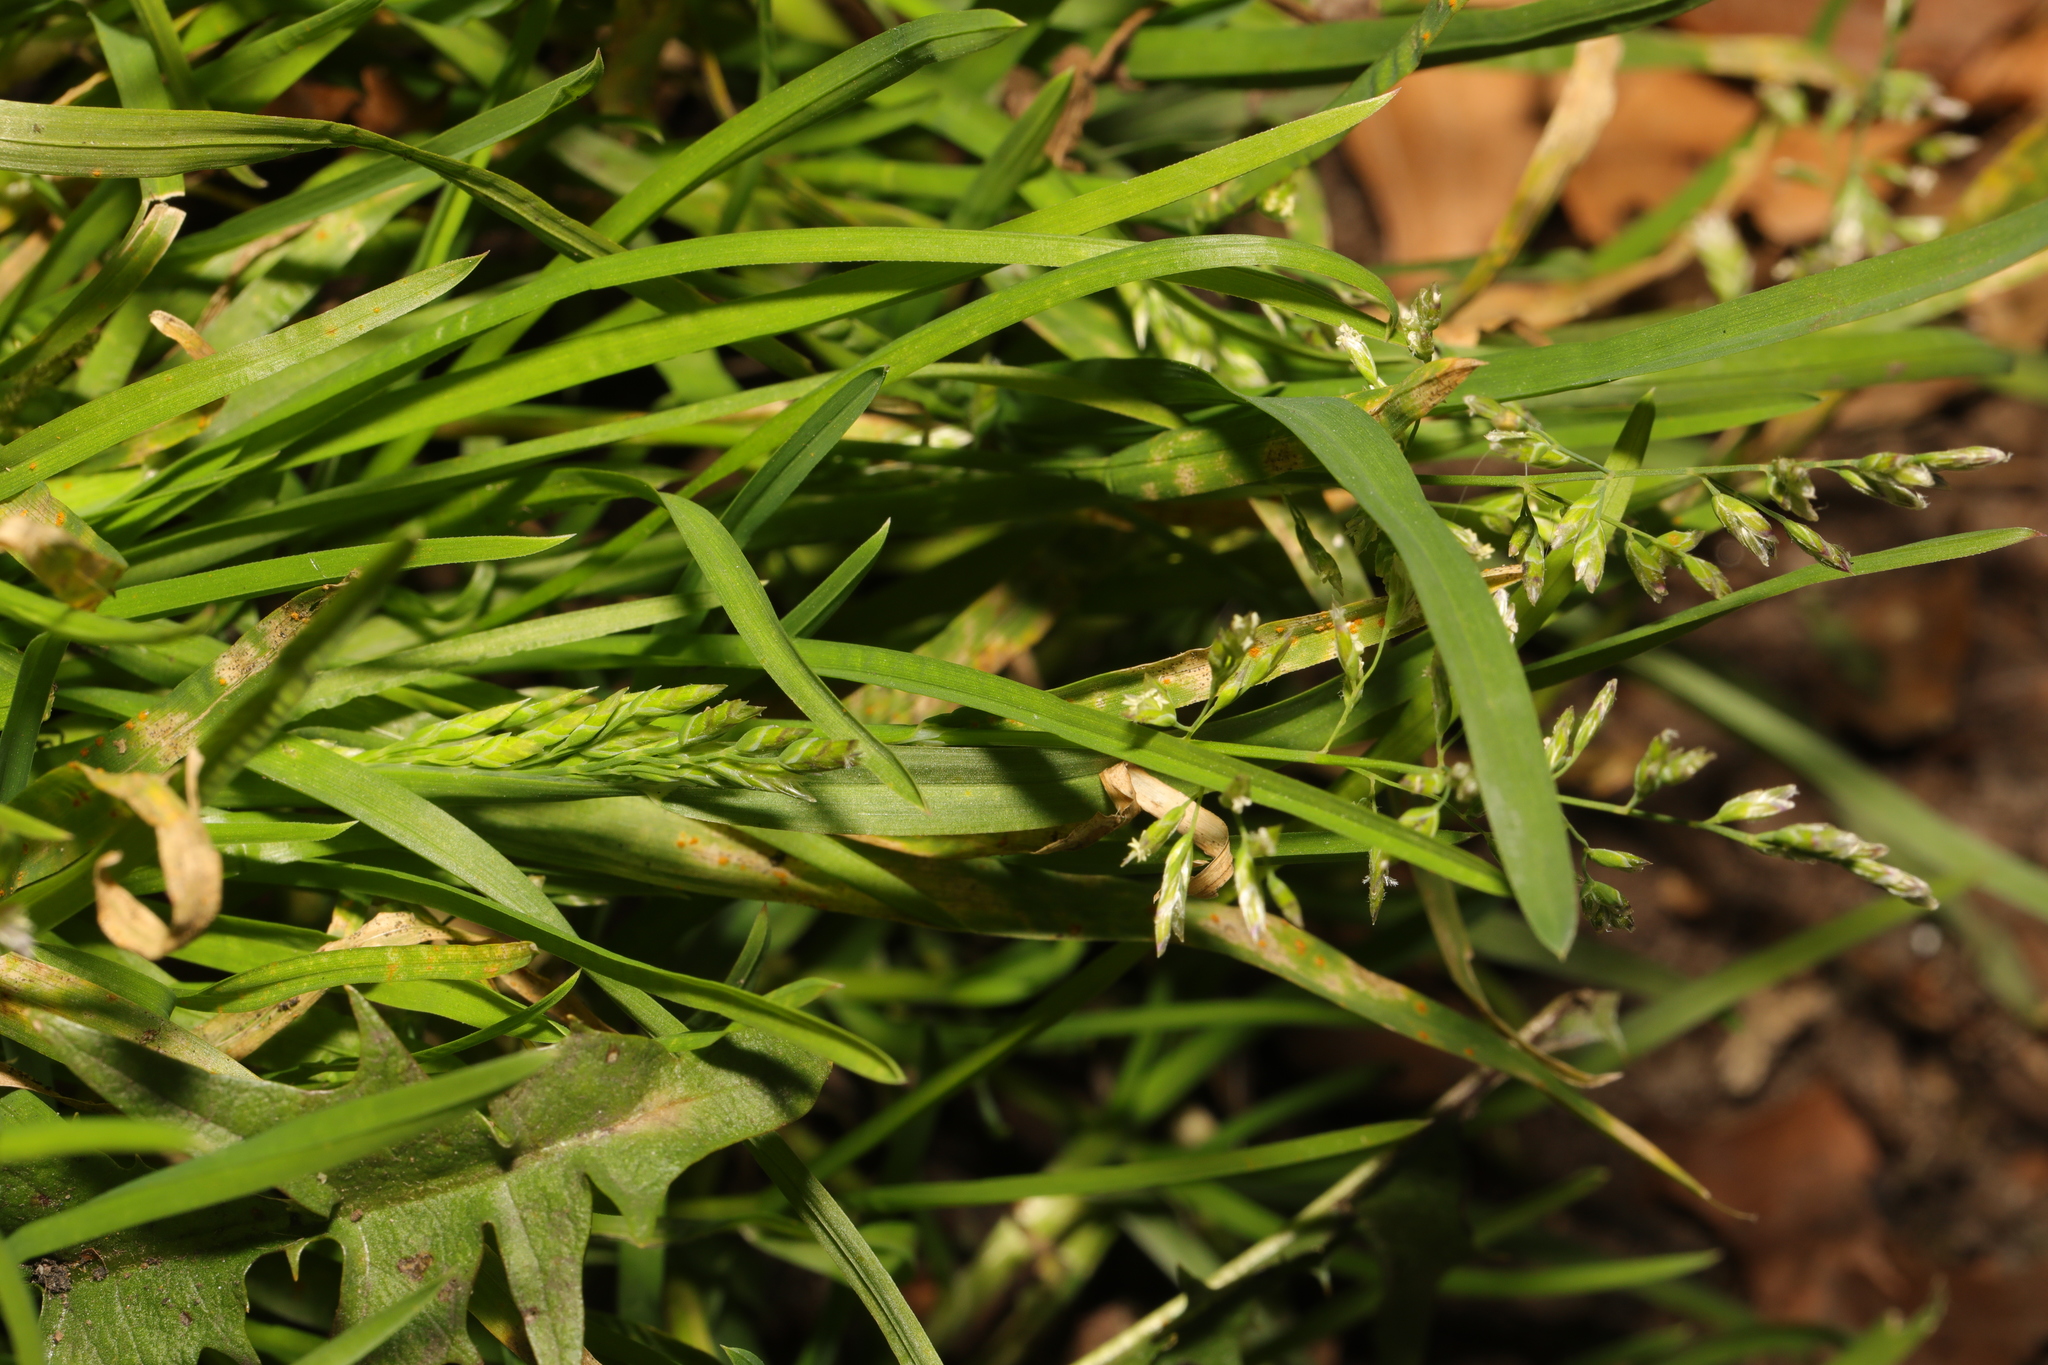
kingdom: Plantae
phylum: Tracheophyta
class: Liliopsida
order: Poales
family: Poaceae
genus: Poa
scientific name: Poa annua
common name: Annual bluegrass
